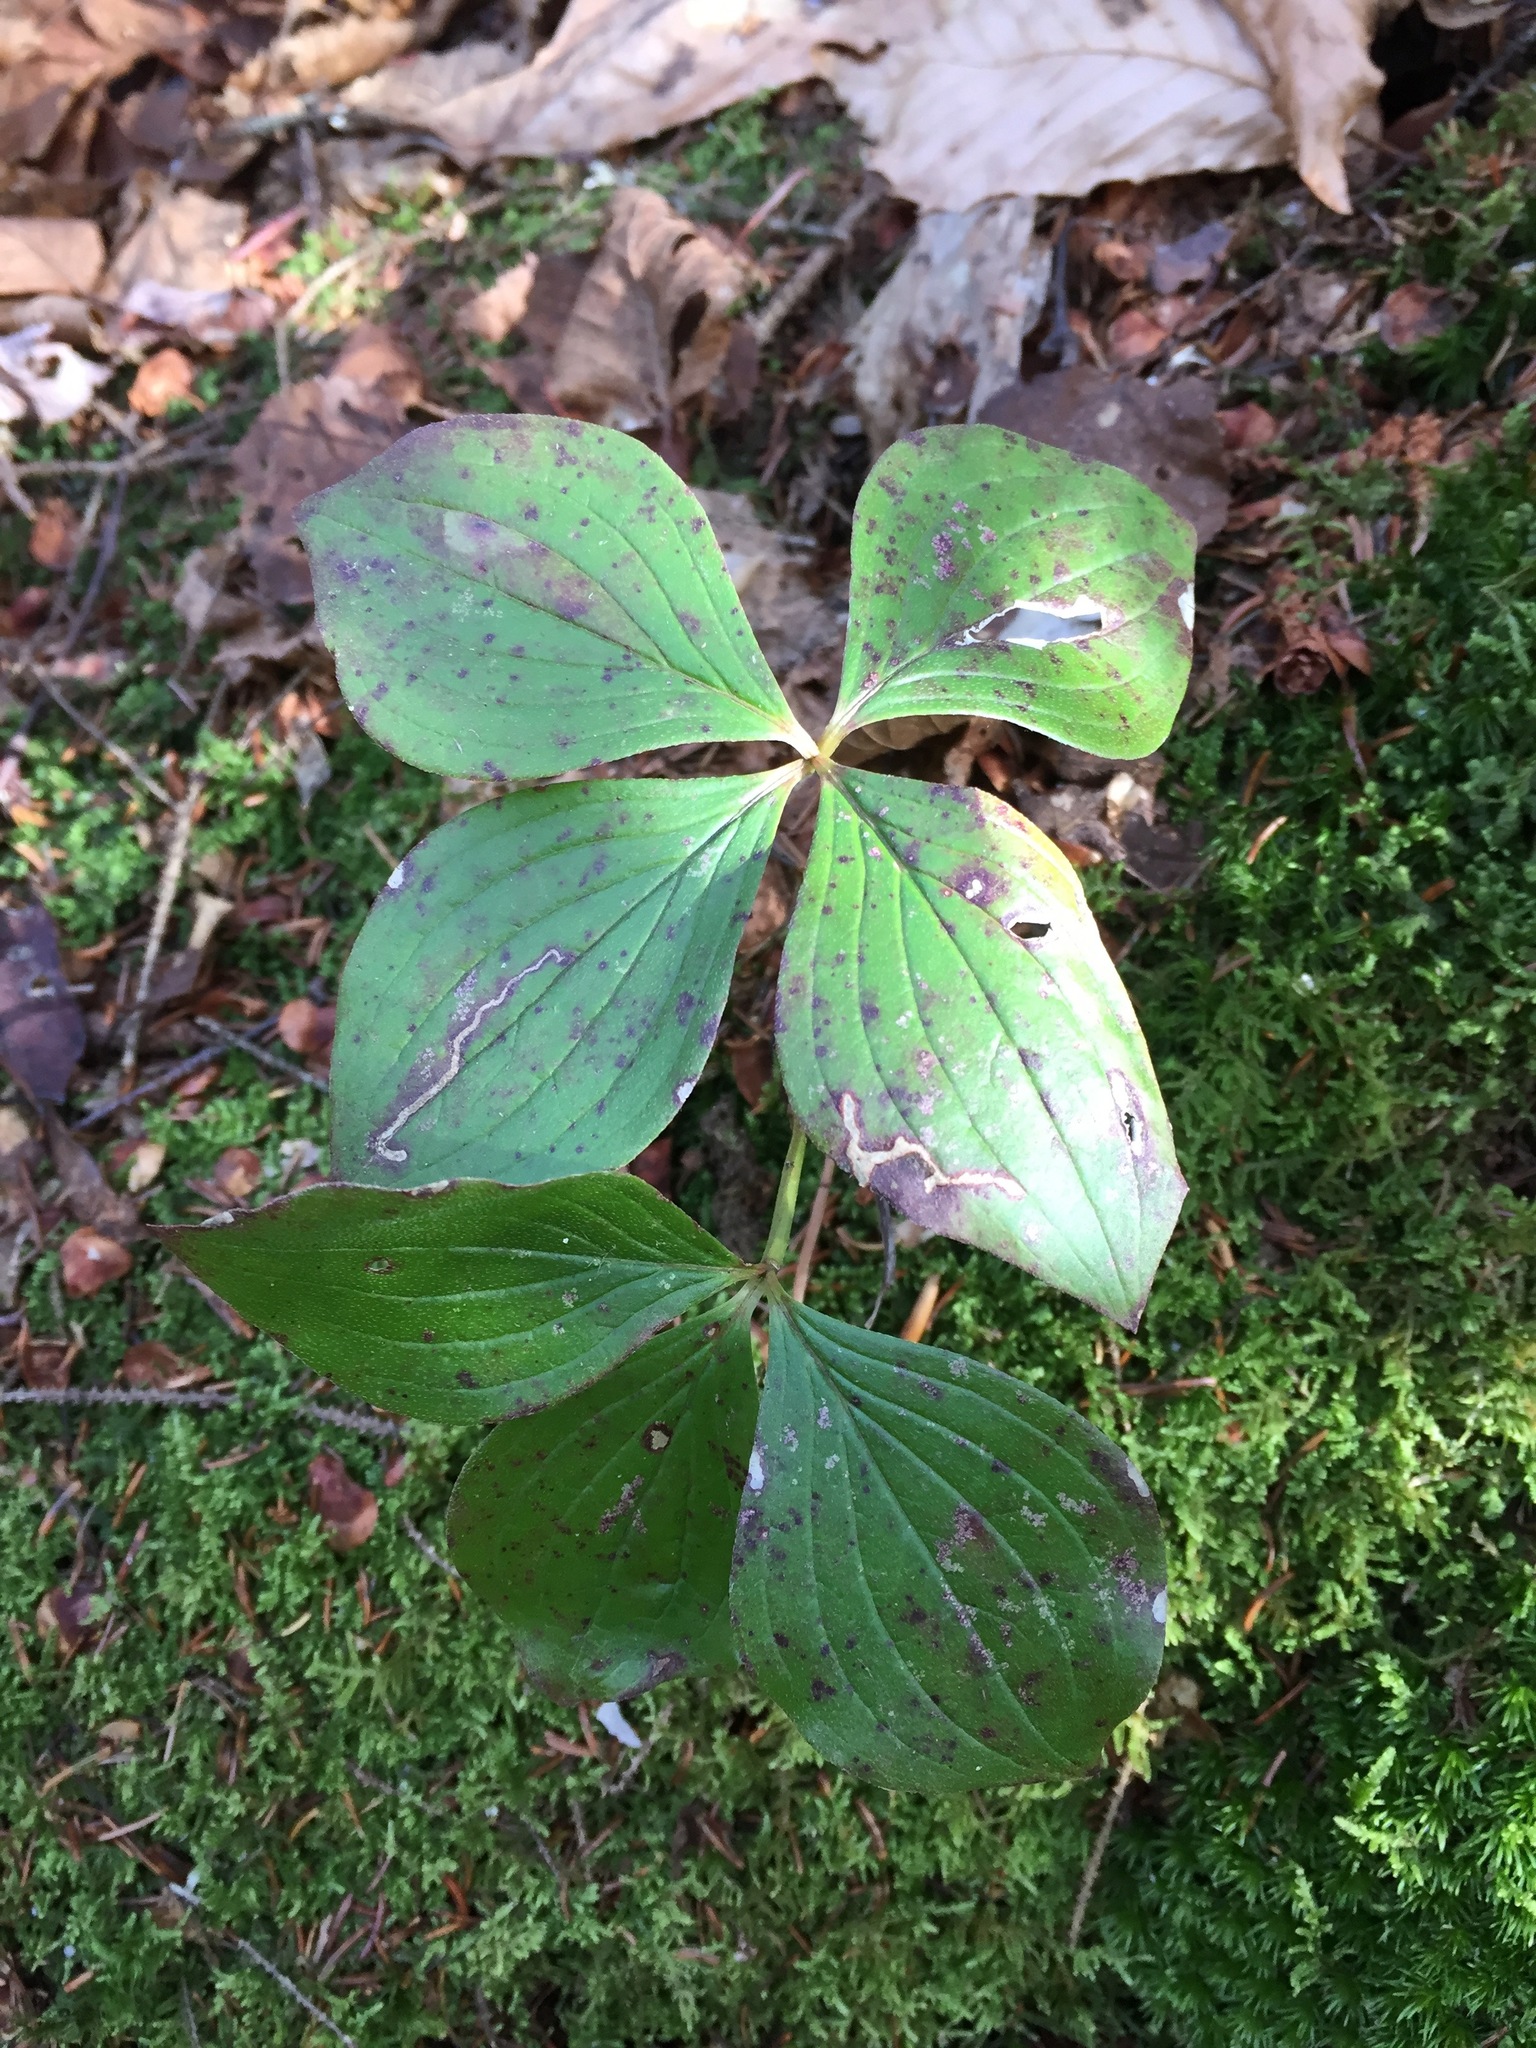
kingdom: Plantae
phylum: Tracheophyta
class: Magnoliopsida
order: Cornales
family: Cornaceae
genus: Cornus
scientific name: Cornus canadensis
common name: Creeping dogwood
